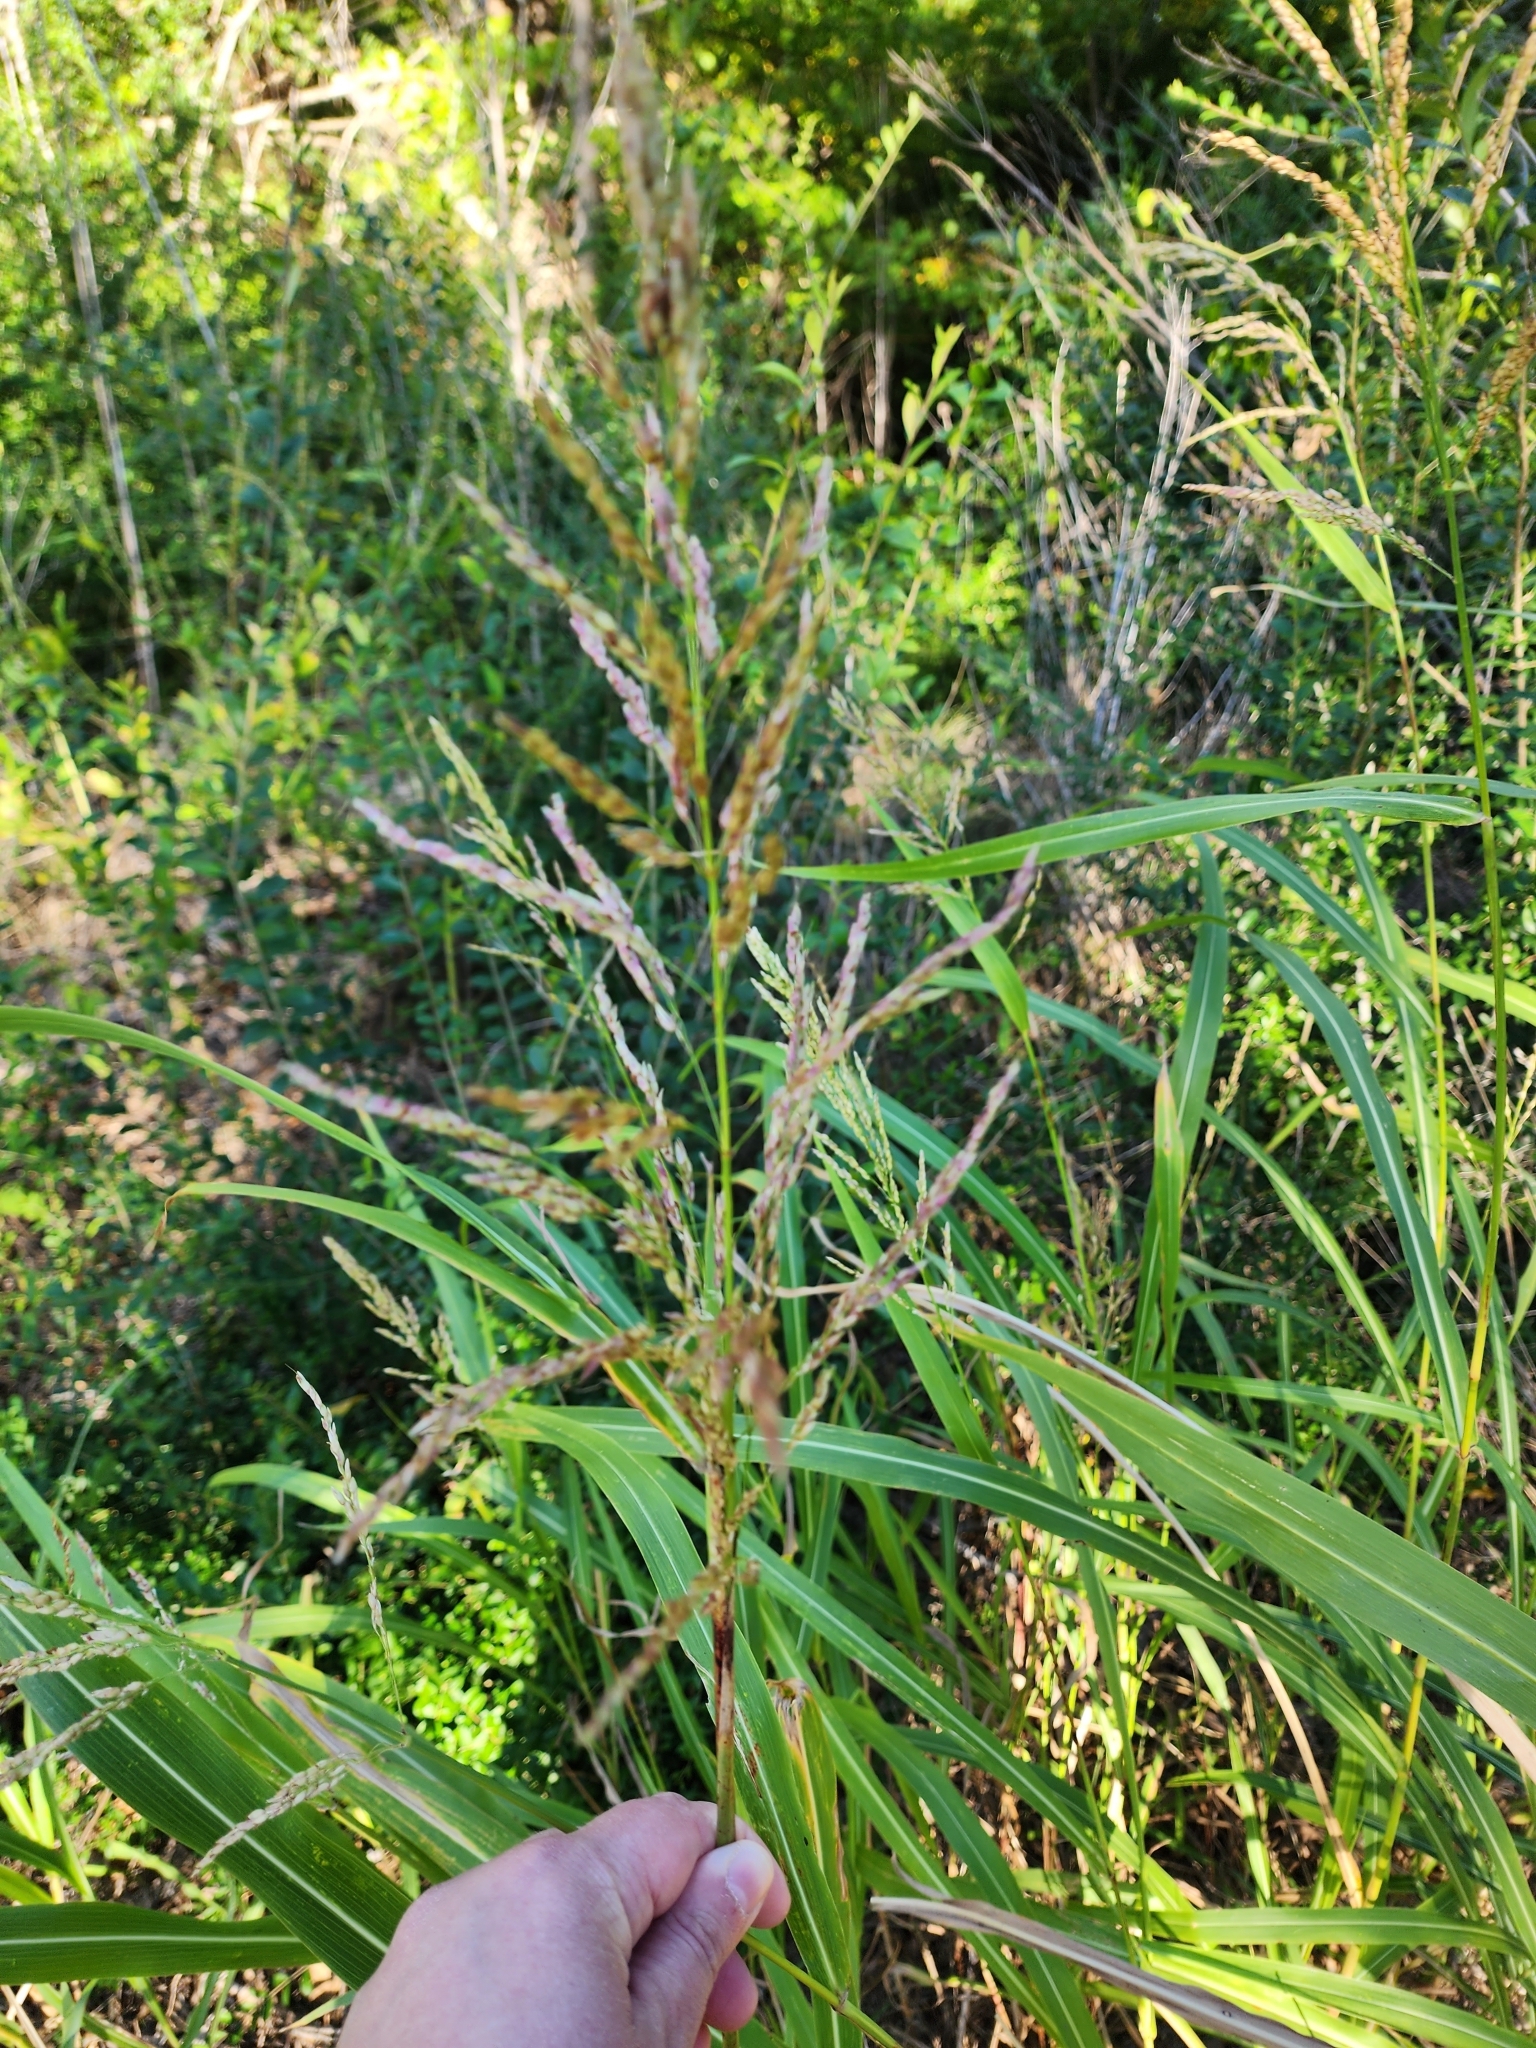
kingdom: Plantae
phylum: Tracheophyta
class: Liliopsida
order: Poales
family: Poaceae
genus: Sorghum
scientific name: Sorghum halepense
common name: Johnson-grass
